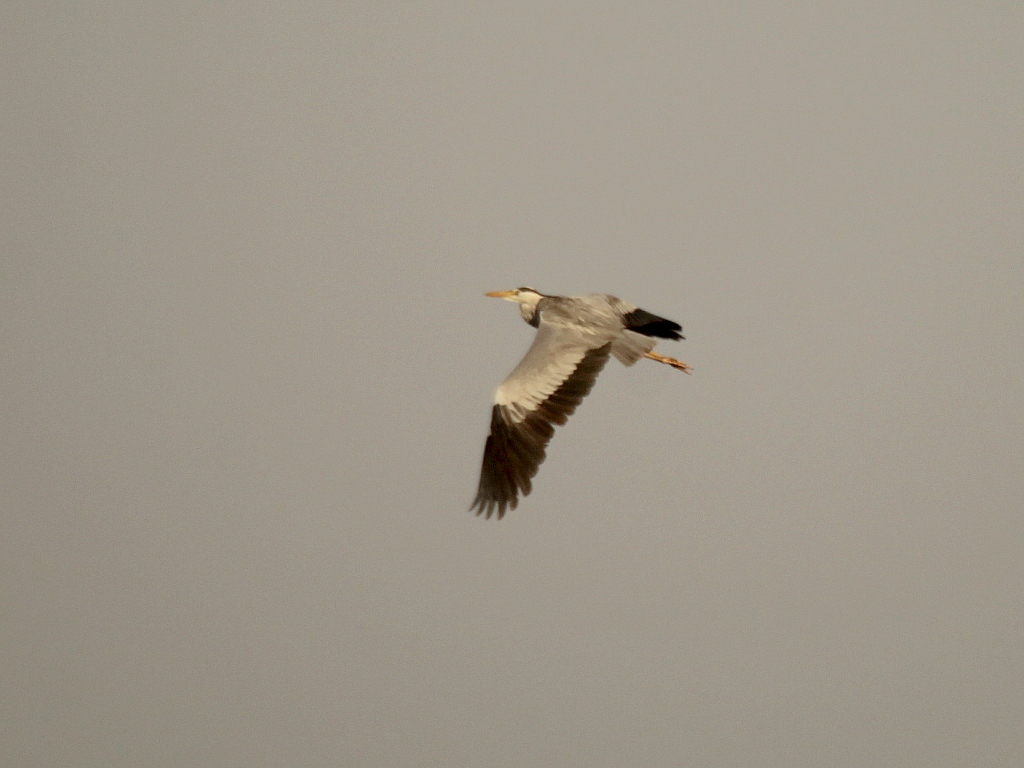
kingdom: Animalia
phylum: Chordata
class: Aves
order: Pelecaniformes
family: Ardeidae
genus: Ardea
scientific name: Ardea cinerea
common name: Grey heron
